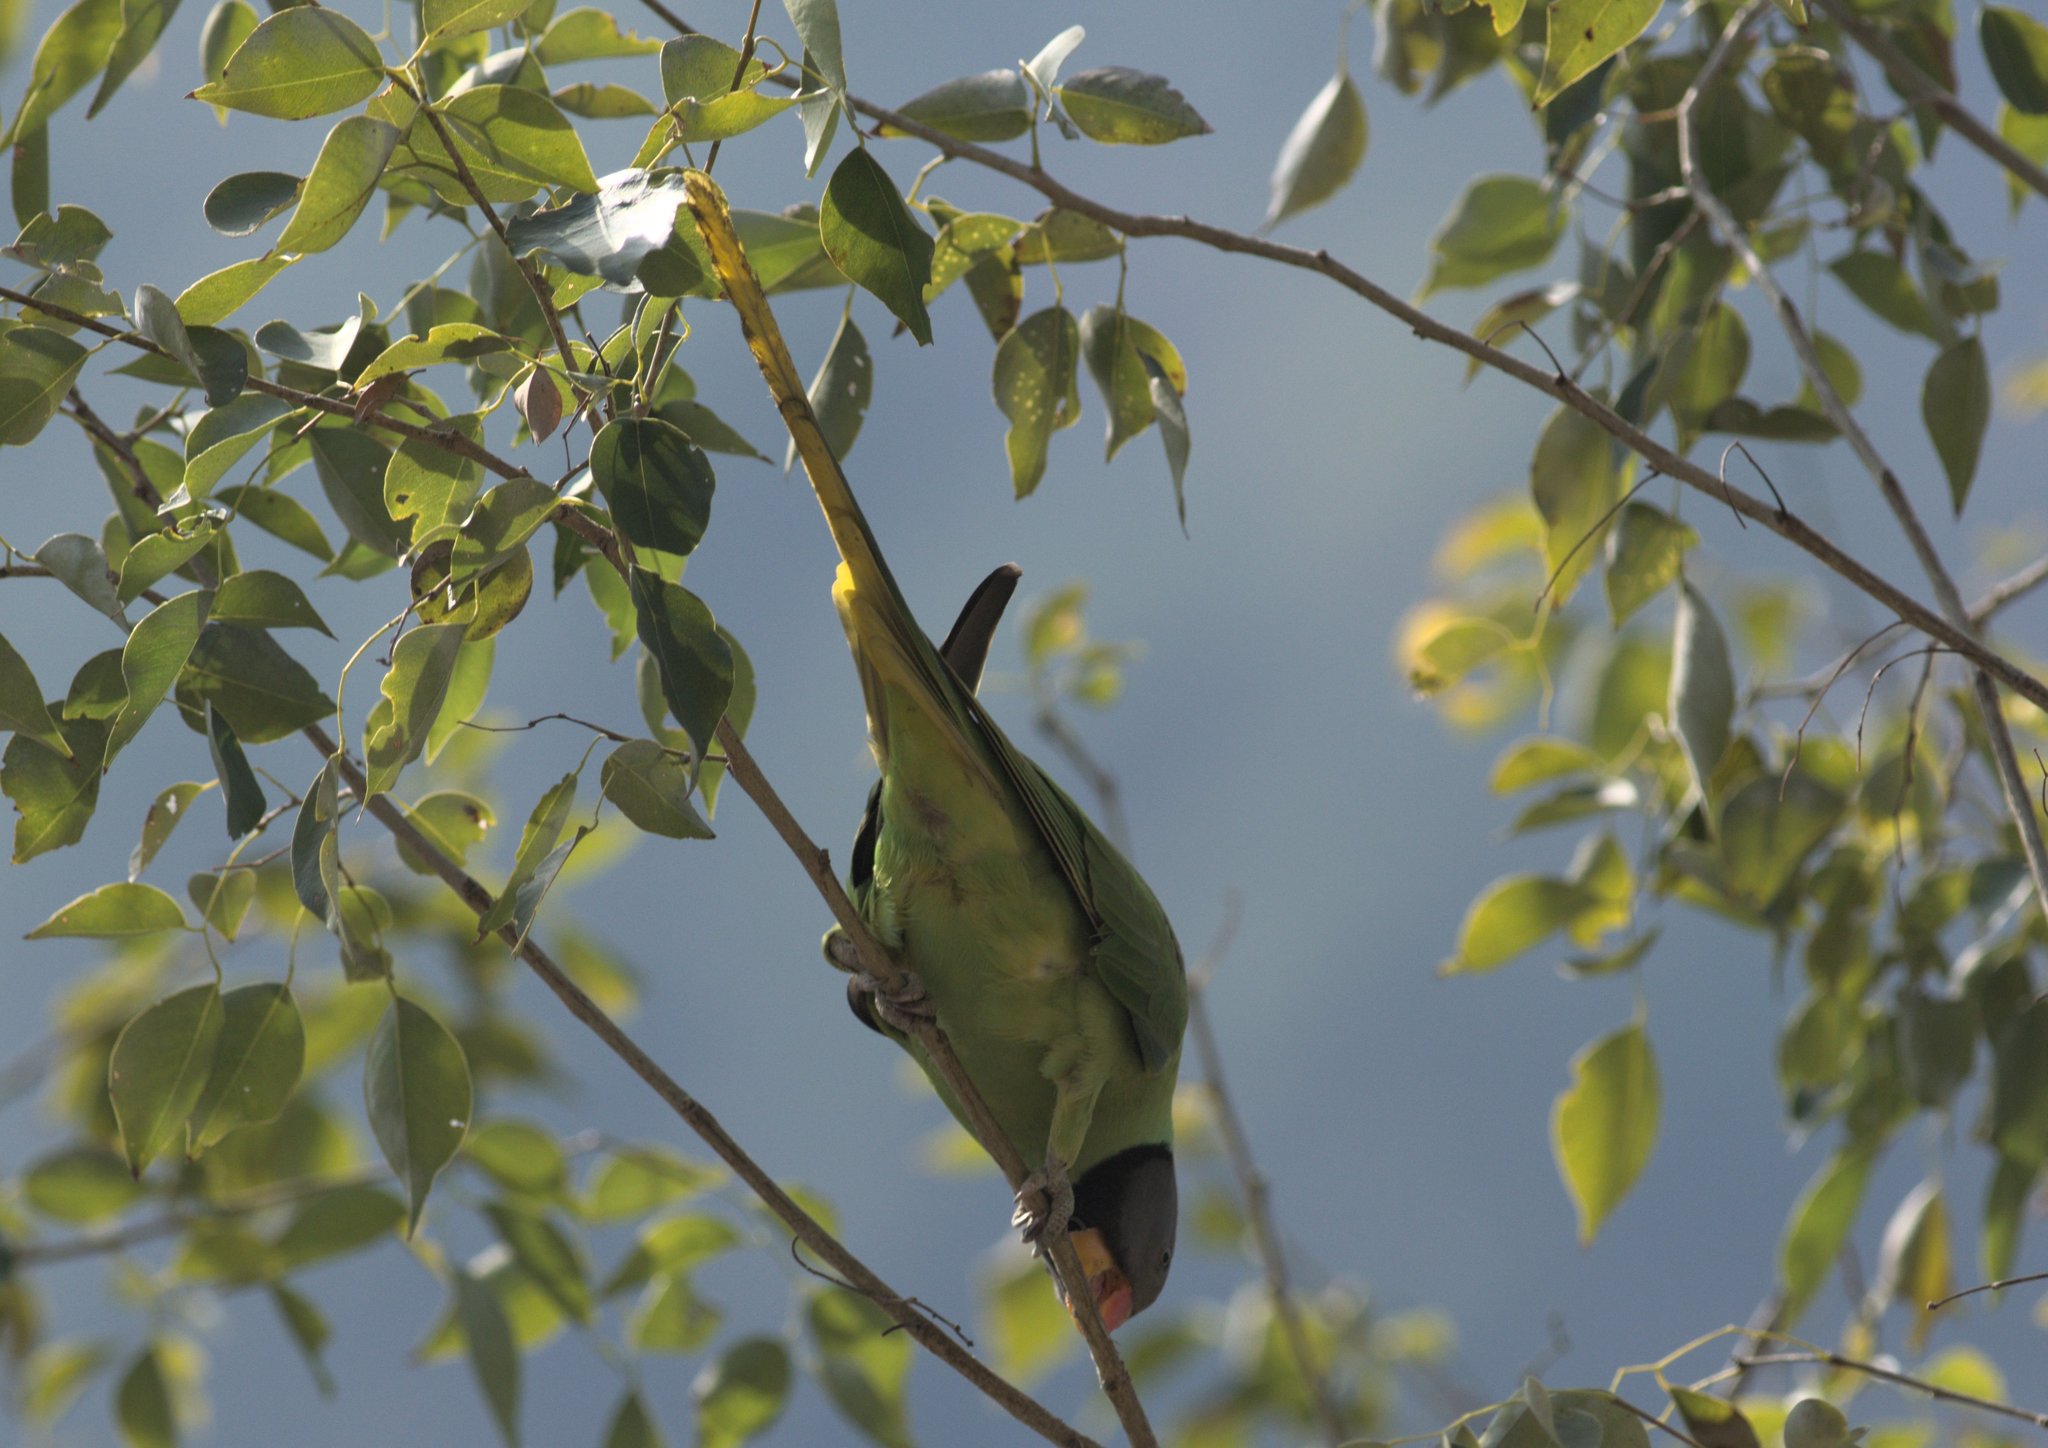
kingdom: Animalia
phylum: Chordata
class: Aves
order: Psittaciformes
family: Psittacidae
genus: Psittacula
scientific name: Psittacula himalayana
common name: Slaty-headed parakeet
